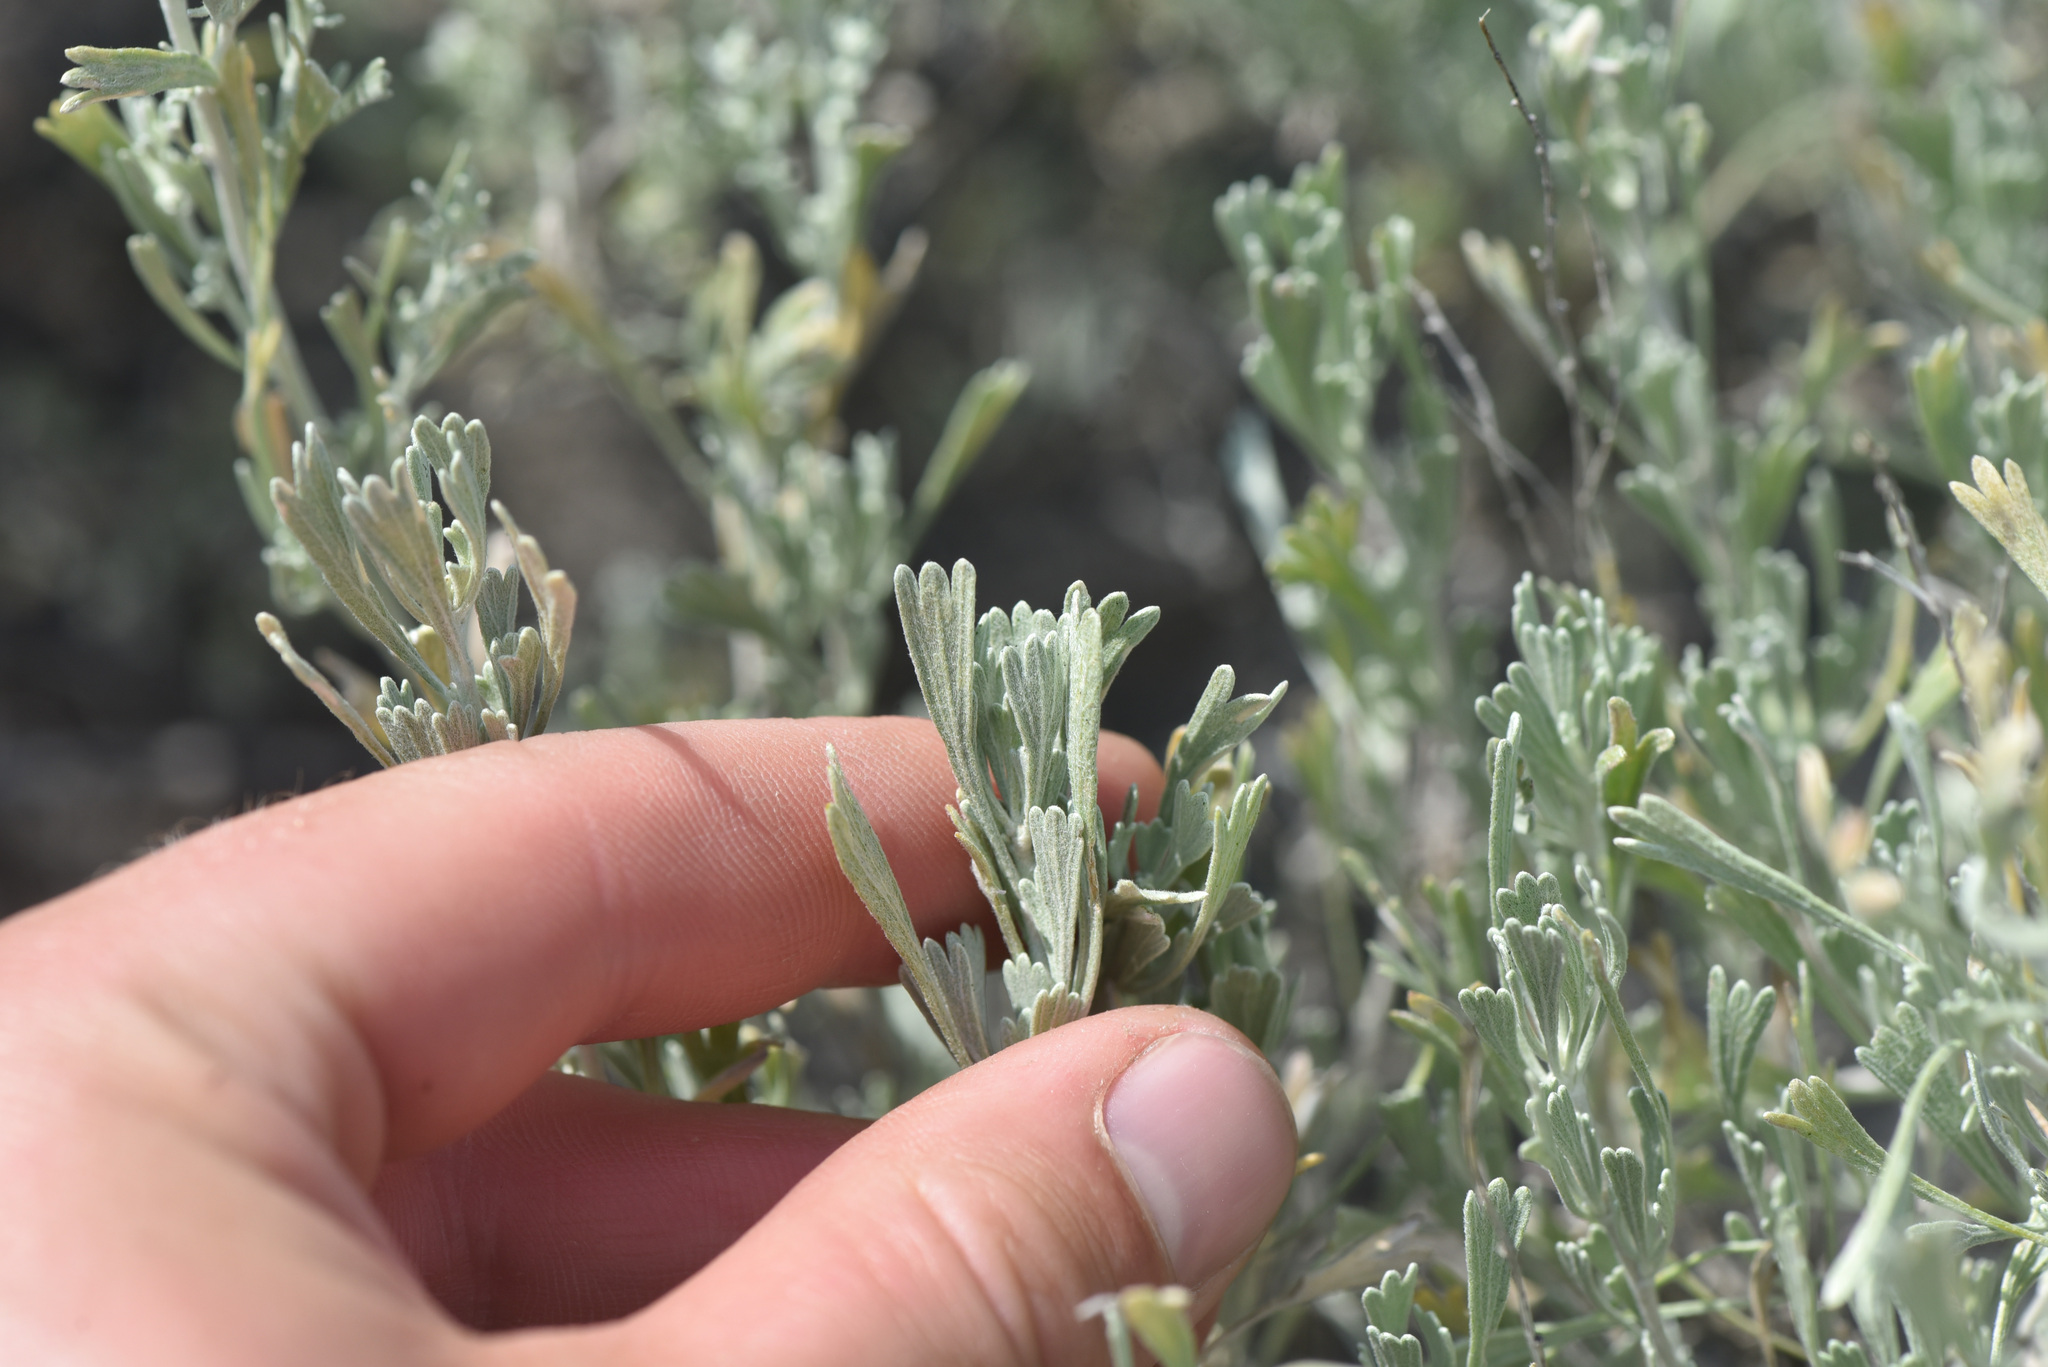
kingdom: Plantae
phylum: Tracheophyta
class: Magnoliopsida
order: Asterales
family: Asteraceae
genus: Artemisia
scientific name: Artemisia tridentata
